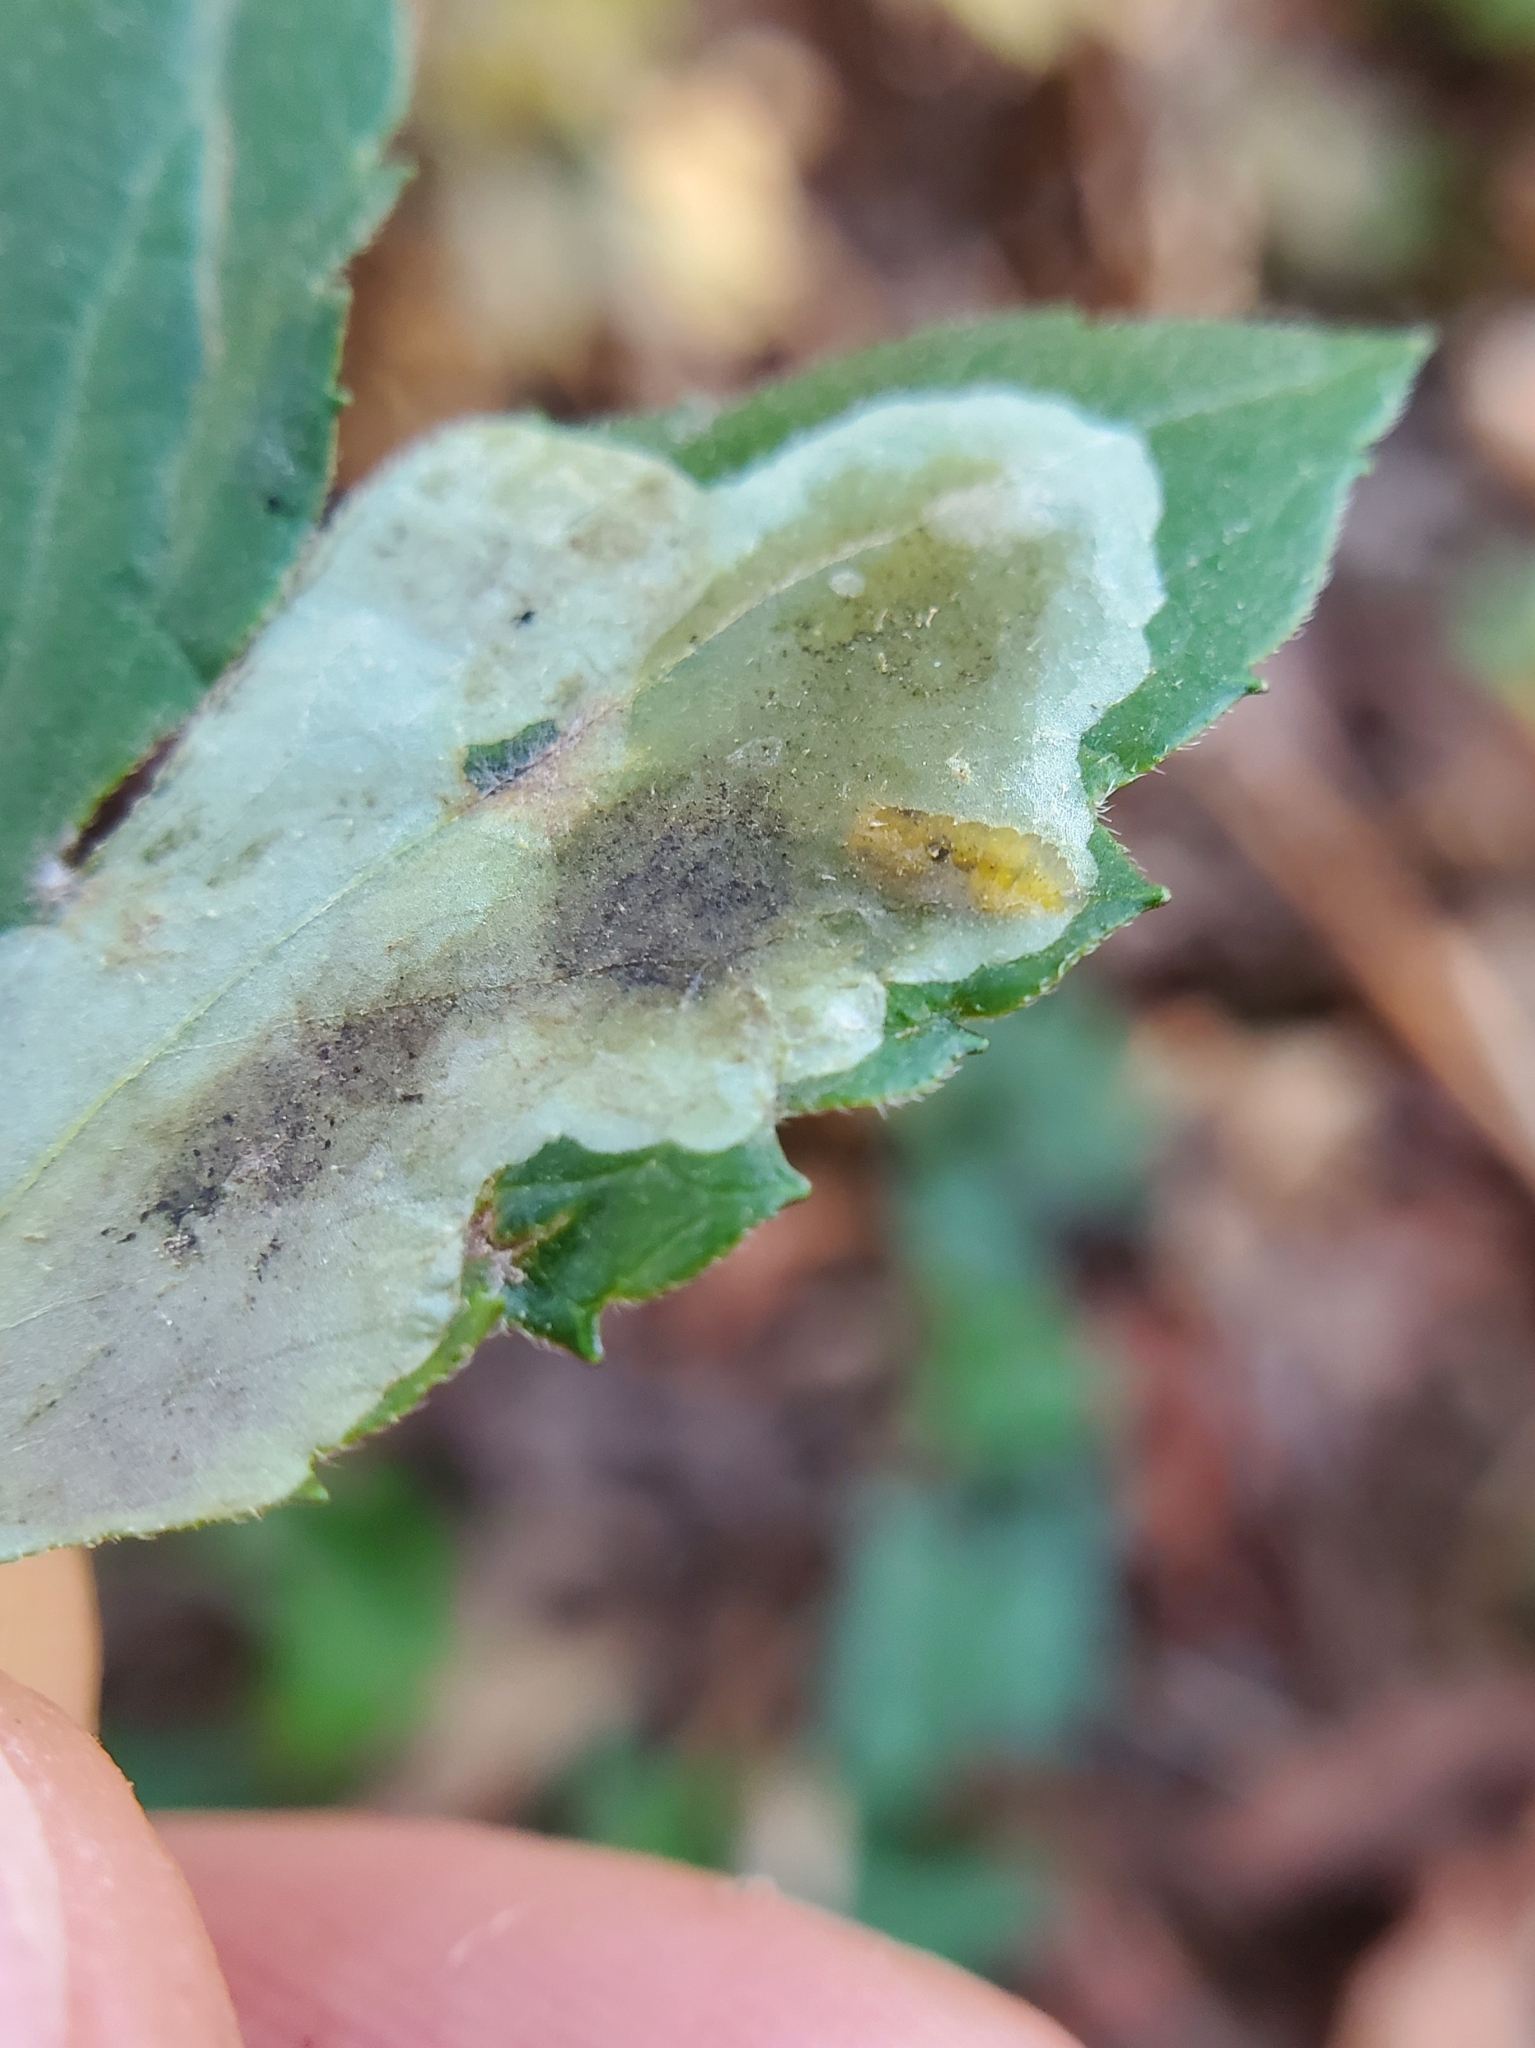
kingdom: Animalia
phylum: Arthropoda
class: Insecta
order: Diptera
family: Agromyzidae
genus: Calycomyza
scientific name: Calycomyza frickiana
